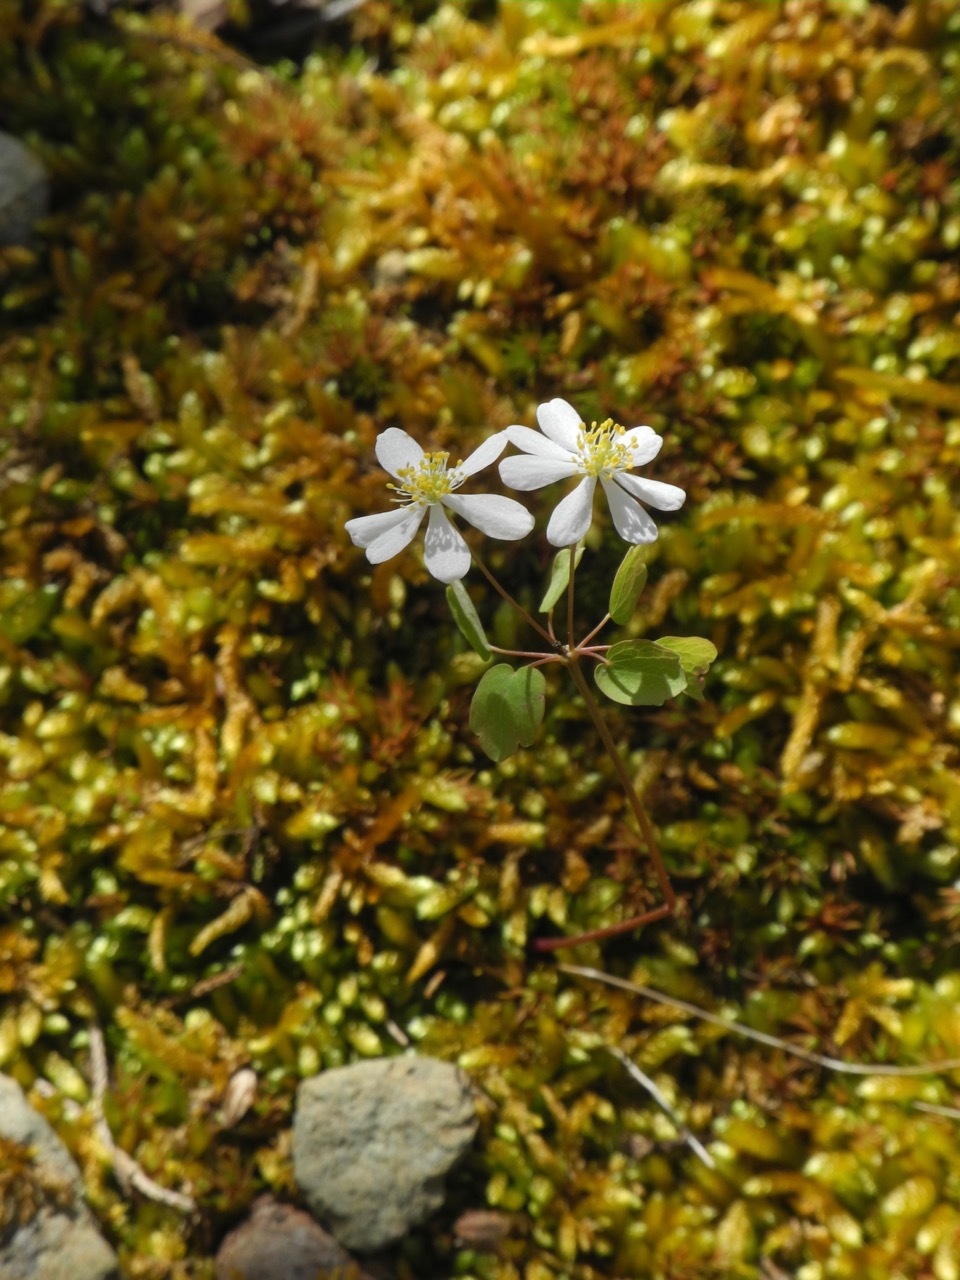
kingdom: Plantae
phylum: Tracheophyta
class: Magnoliopsida
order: Ranunculales
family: Ranunculaceae
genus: Thalictrum
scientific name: Thalictrum thalictroides
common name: Rue-anemone
